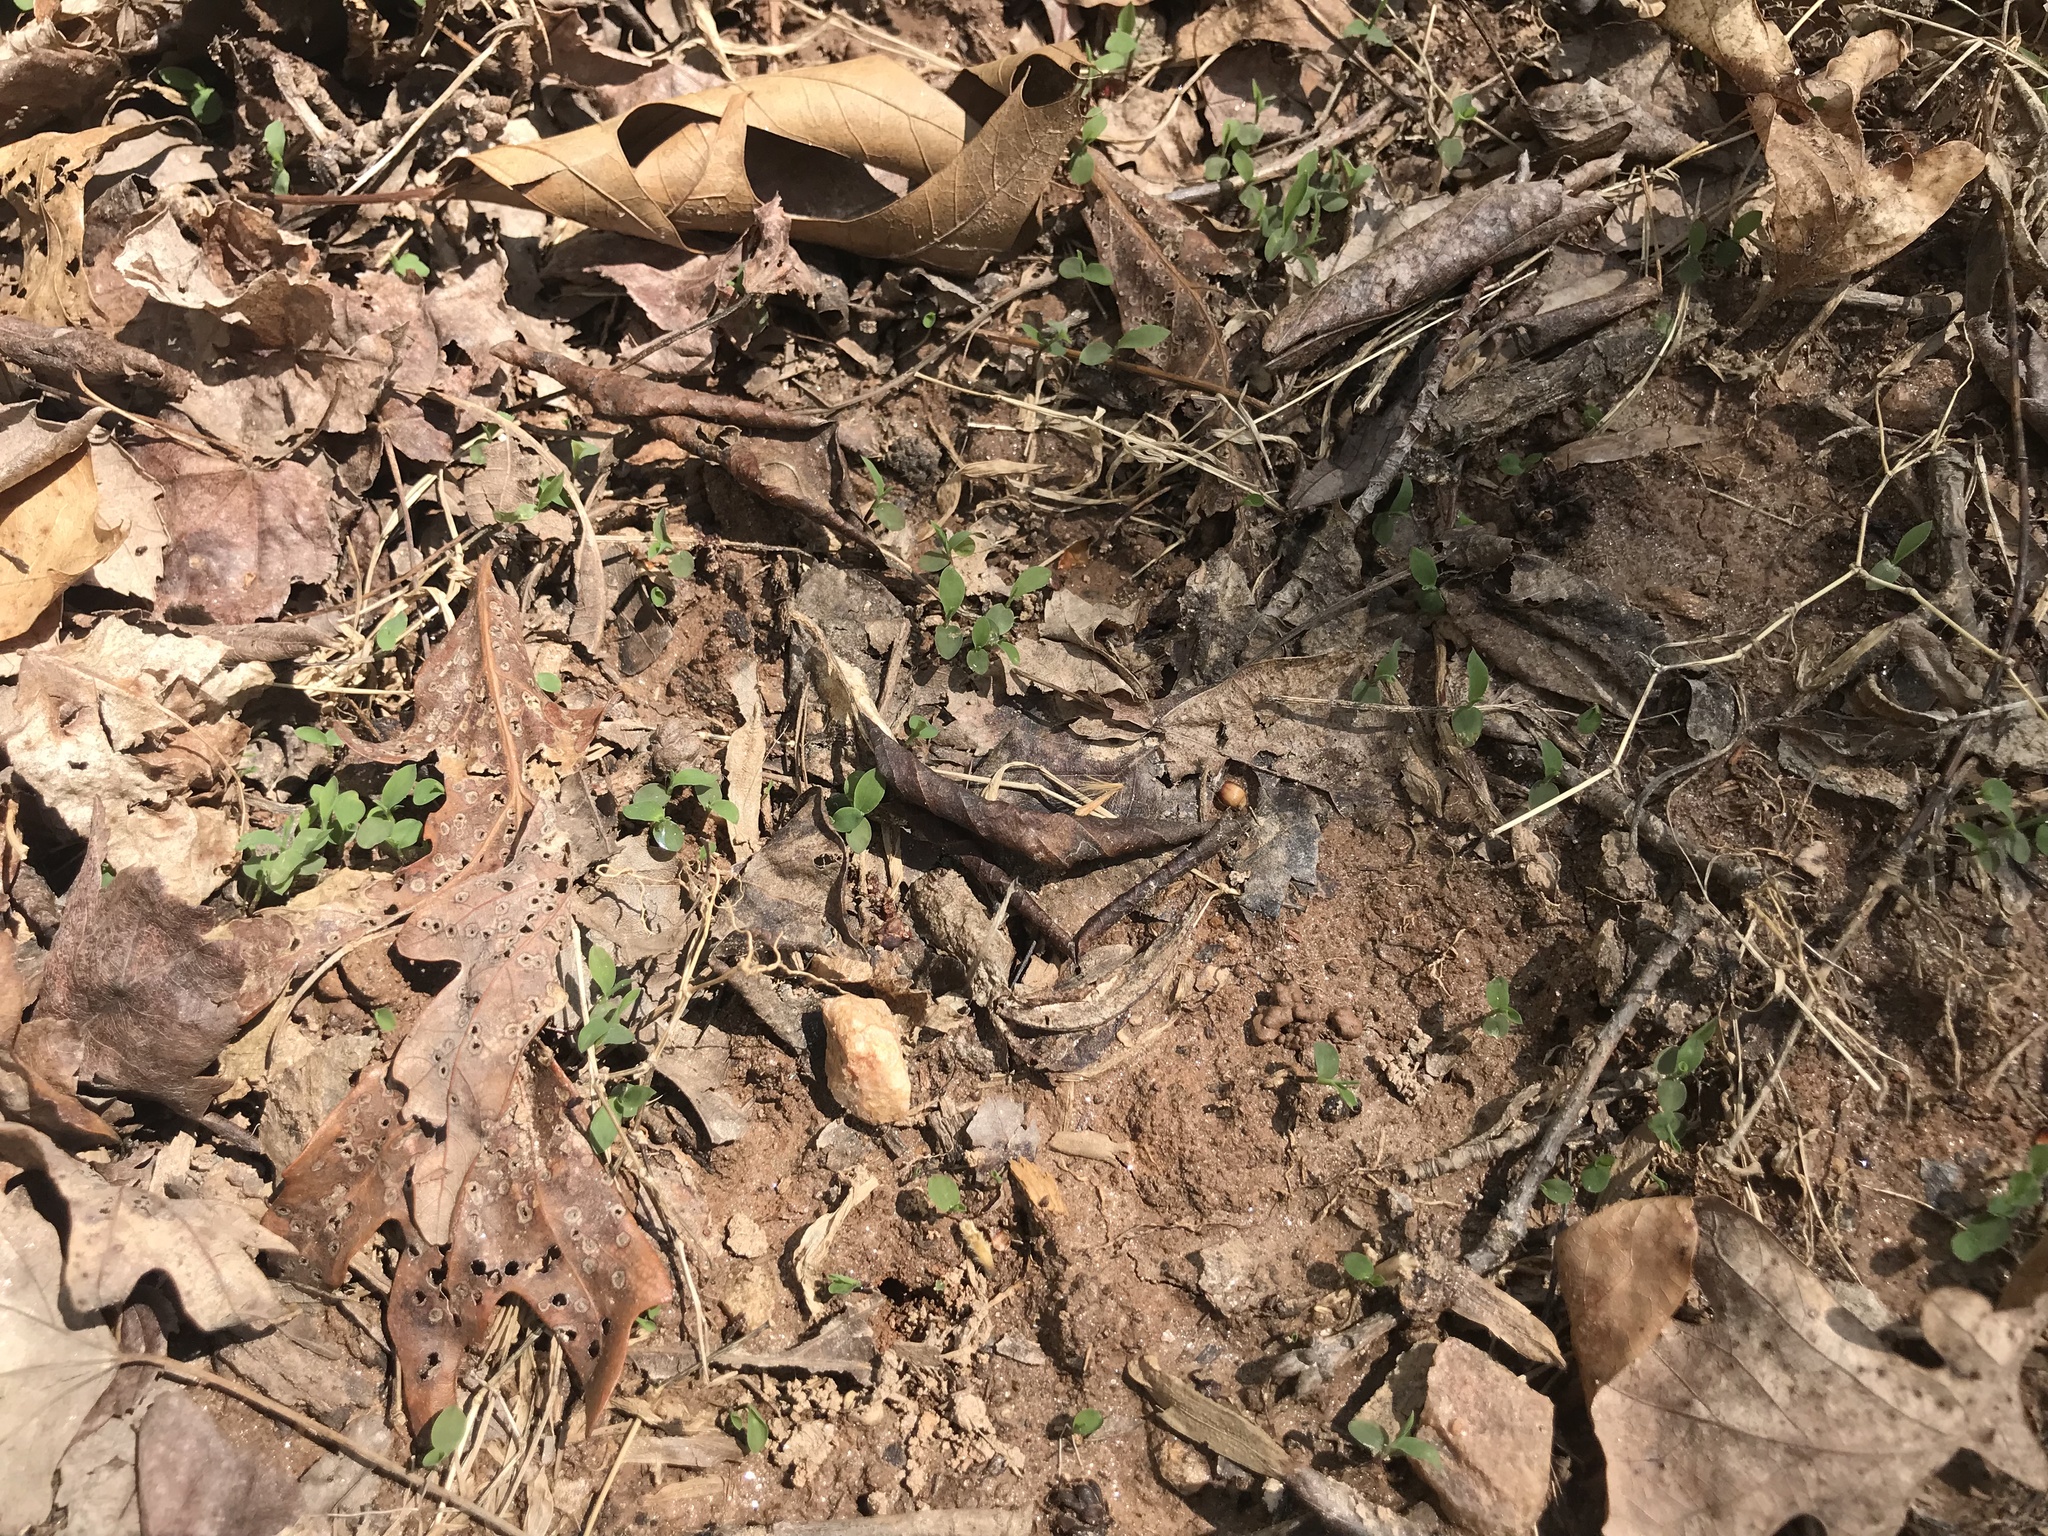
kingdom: Plantae
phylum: Tracheophyta
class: Liliopsida
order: Poales
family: Poaceae
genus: Microstegium
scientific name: Microstegium vimineum
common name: Japanese stiltgrass
